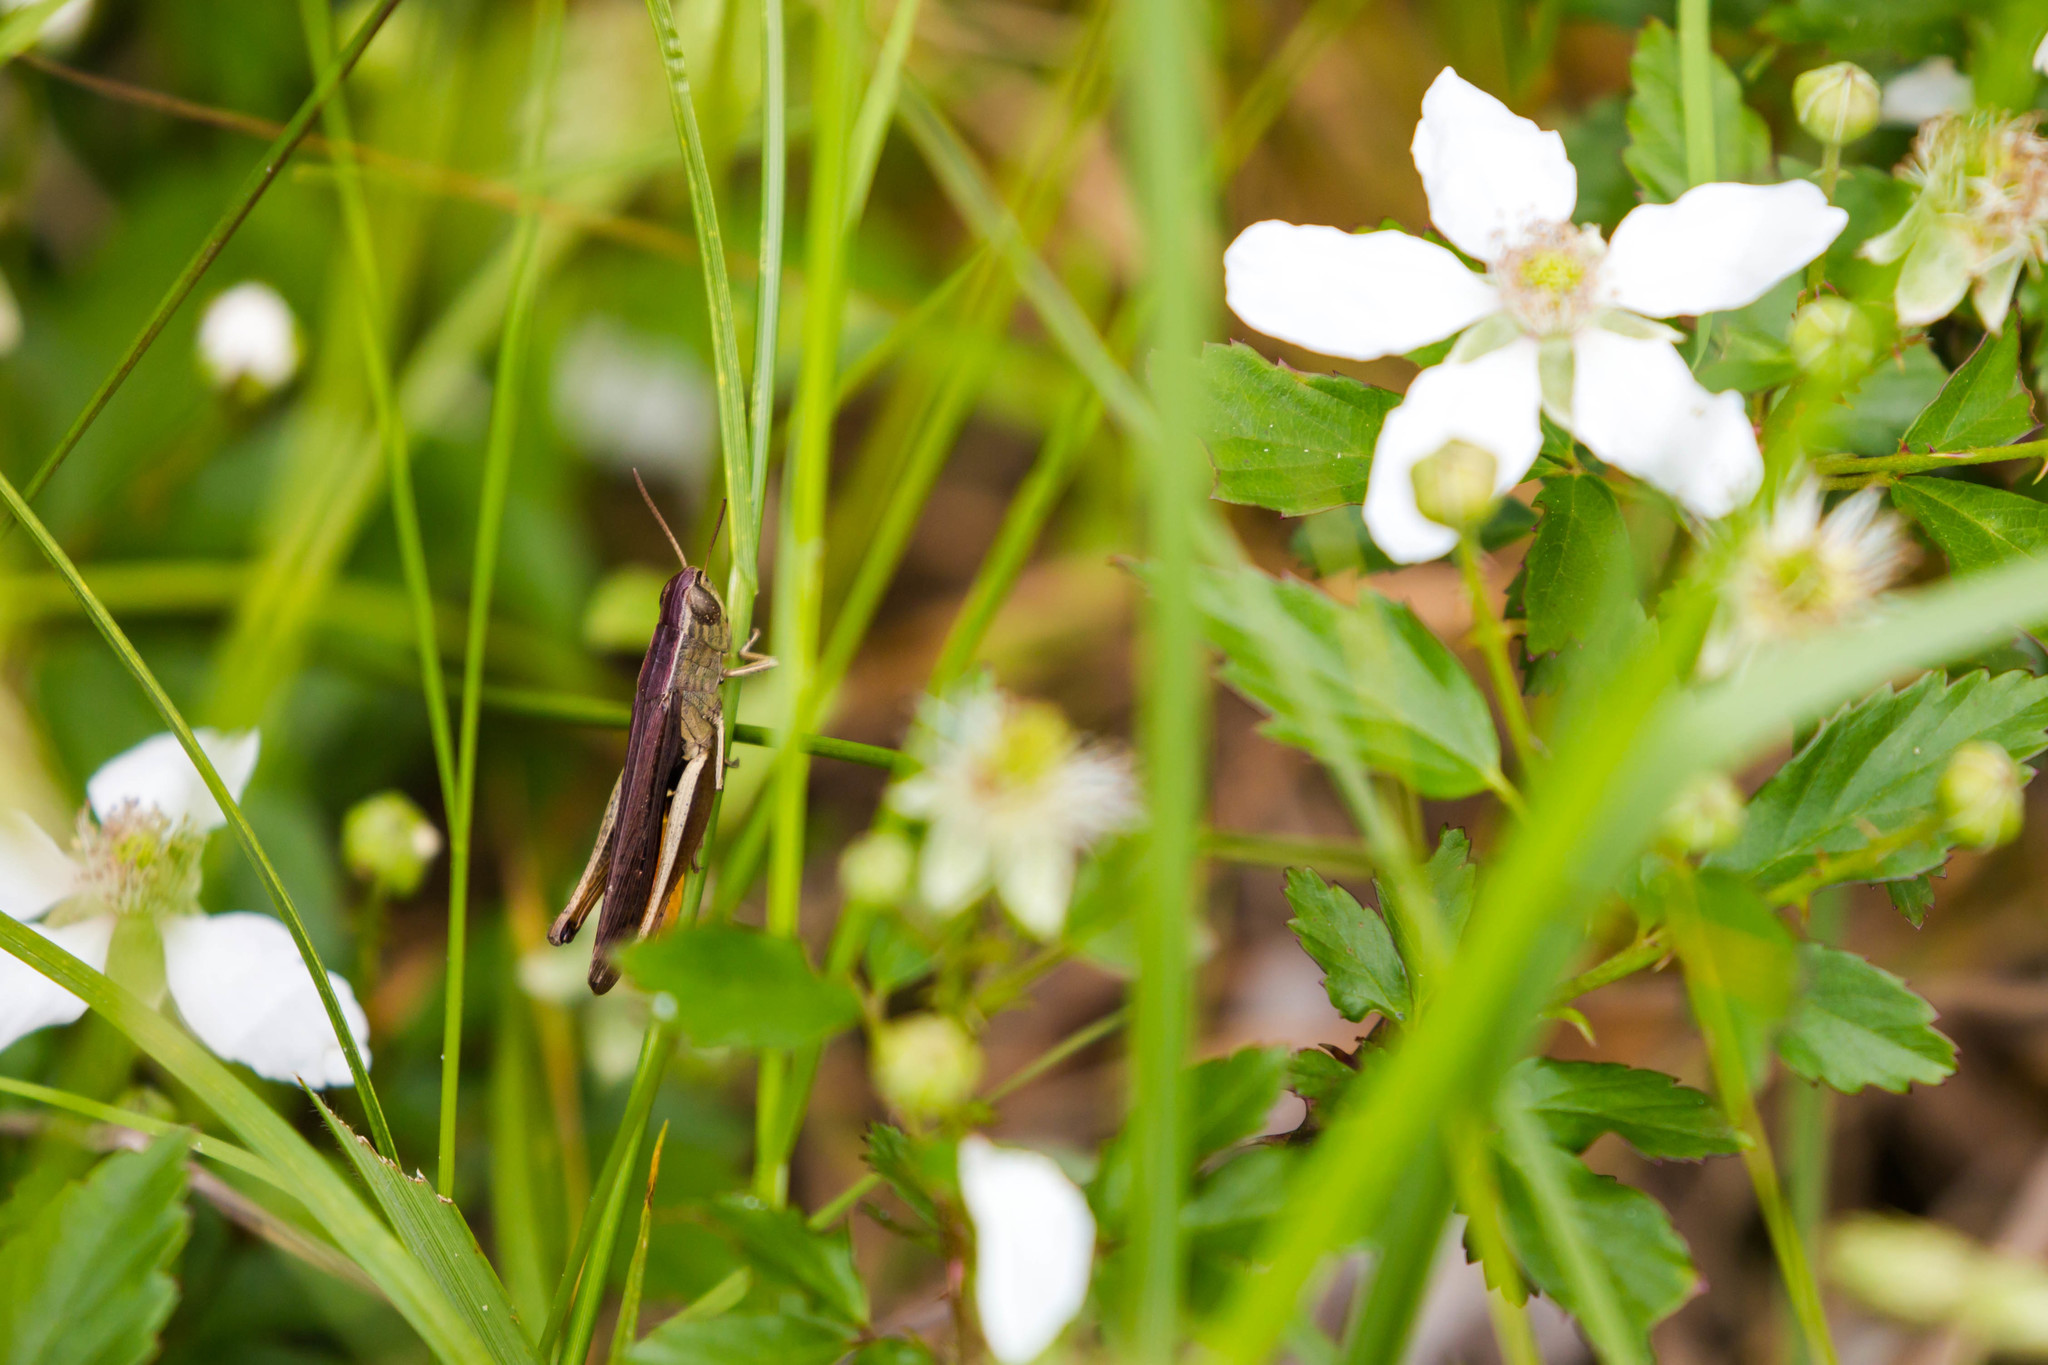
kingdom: Animalia
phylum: Arthropoda
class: Insecta
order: Orthoptera
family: Acrididae
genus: Amblytropidia
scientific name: Amblytropidia mysteca
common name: Brown winter grasshopper
